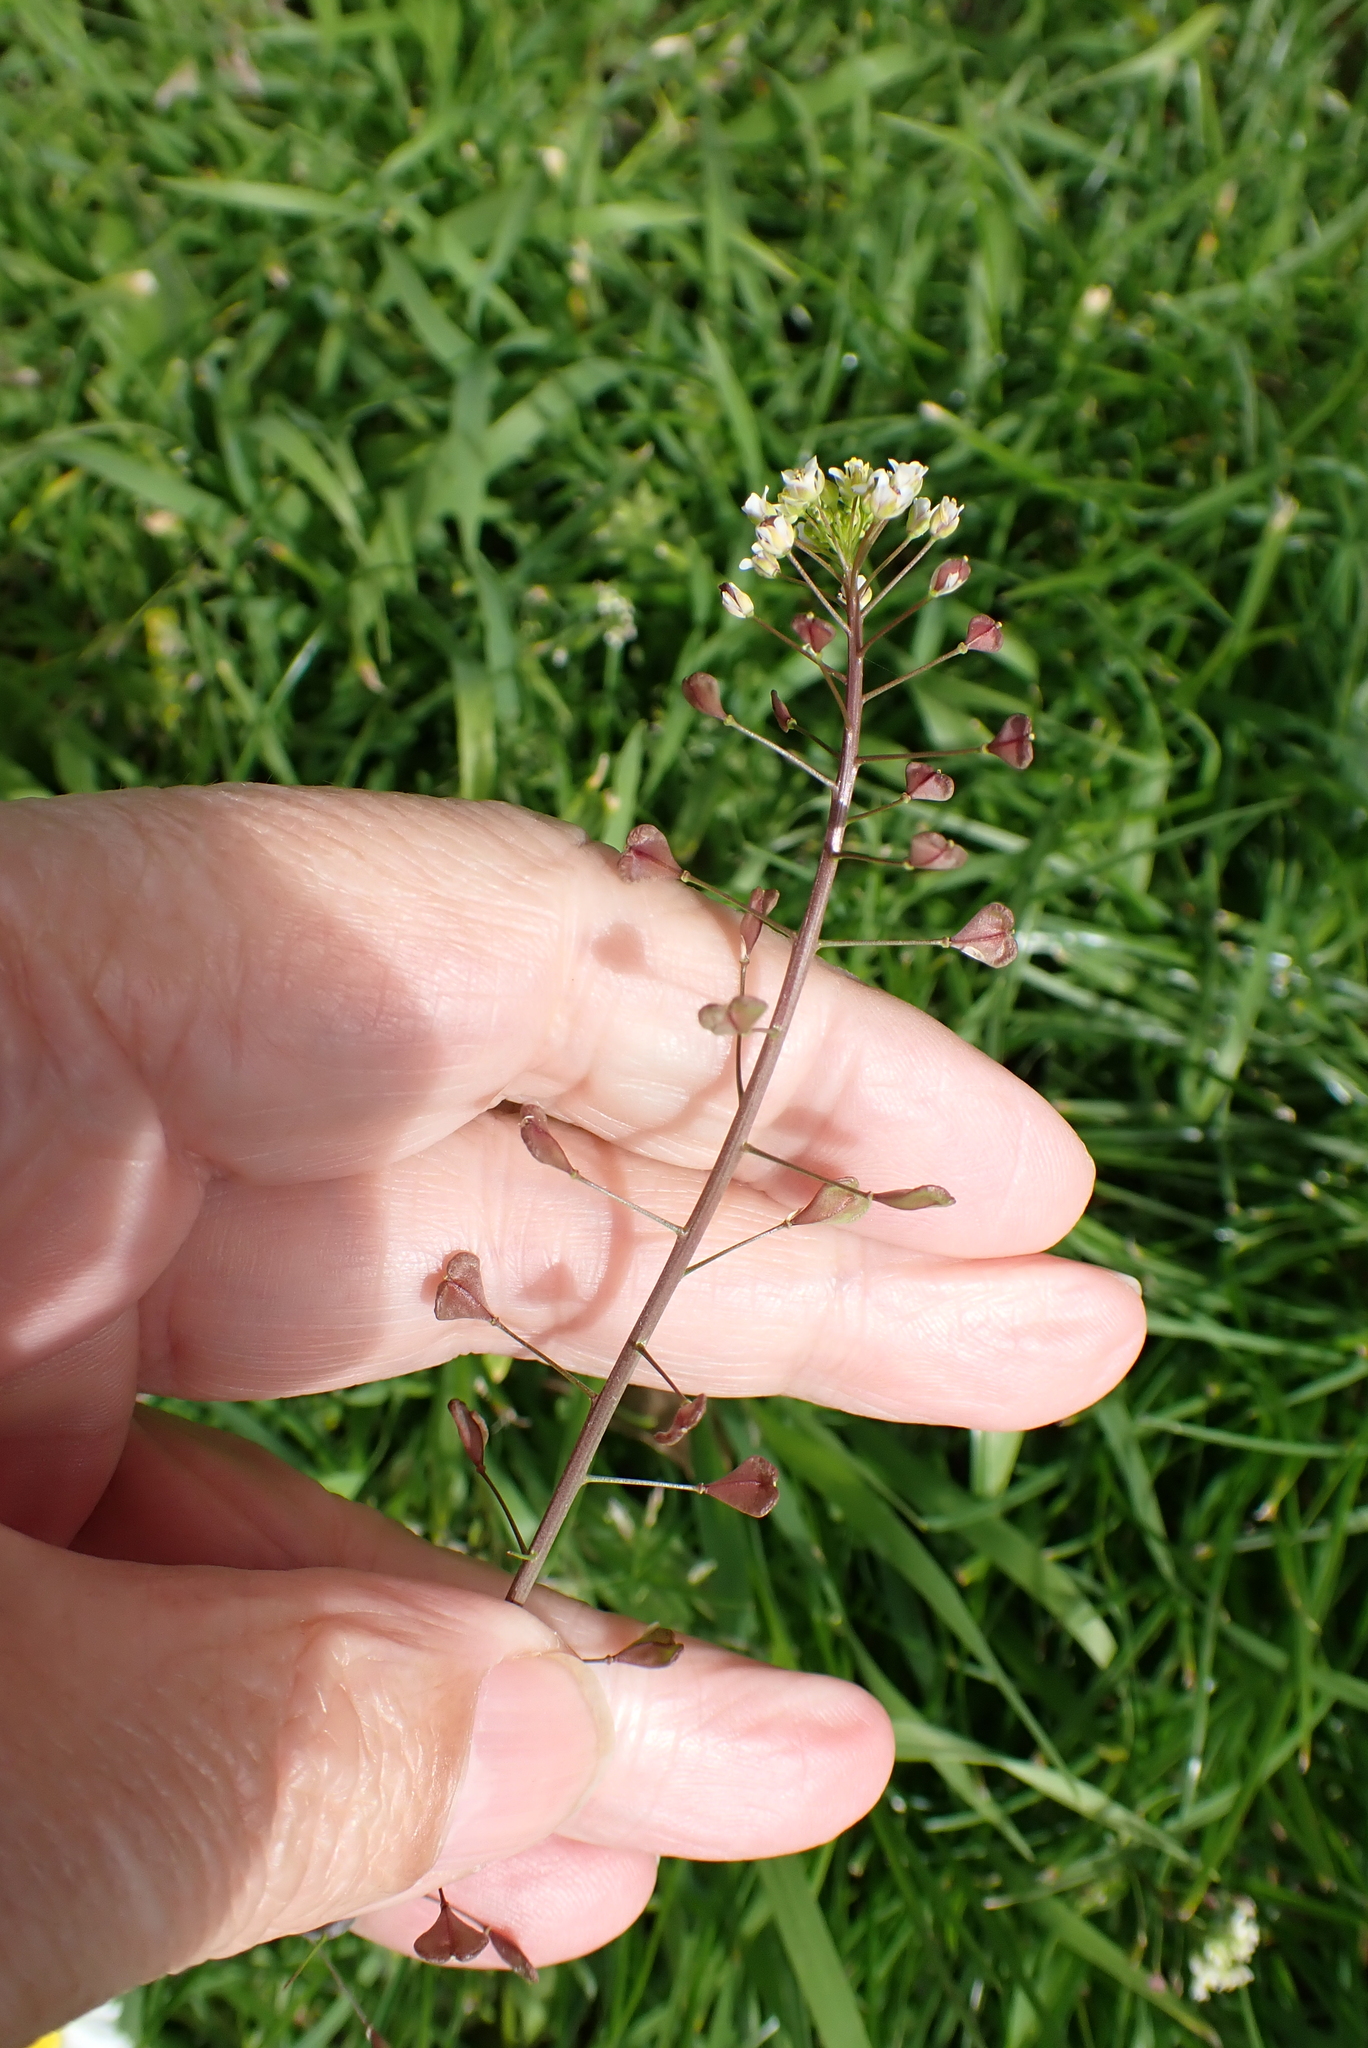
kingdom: Plantae
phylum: Tracheophyta
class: Magnoliopsida
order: Brassicales
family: Brassicaceae
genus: Capsella
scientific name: Capsella bursa-pastoris
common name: Shepherd's purse
